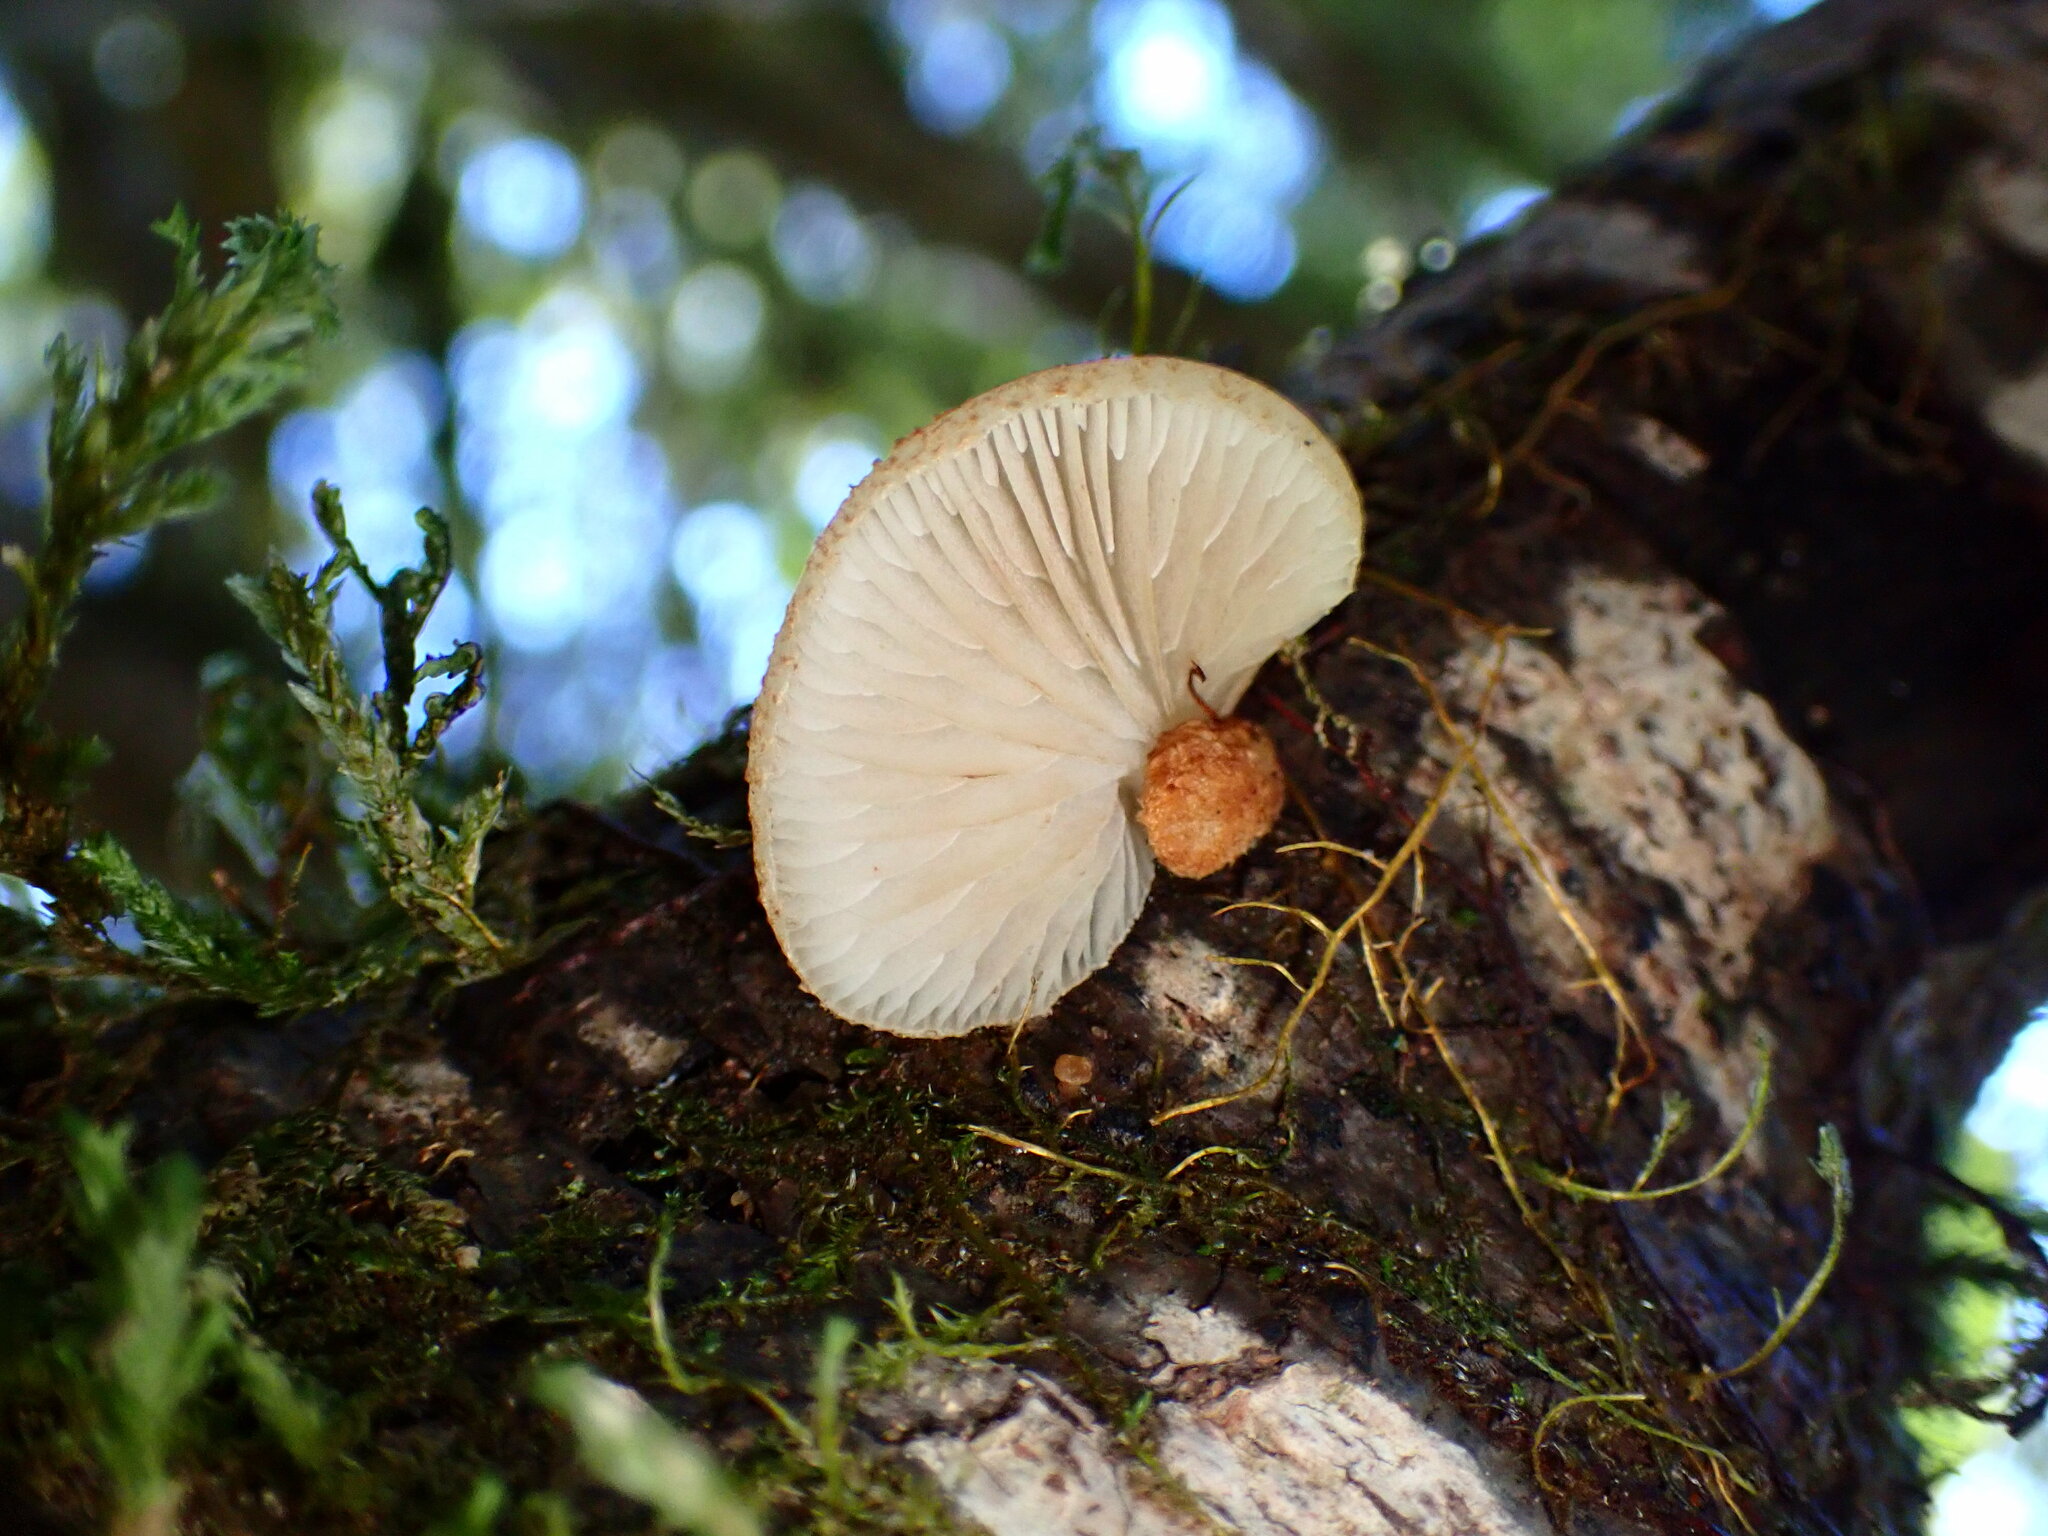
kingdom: Fungi
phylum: Basidiomycota
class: Agaricomycetes
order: Agaricales
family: Crepidotaceae
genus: Crepidotus
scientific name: Crepidotus calolepis
